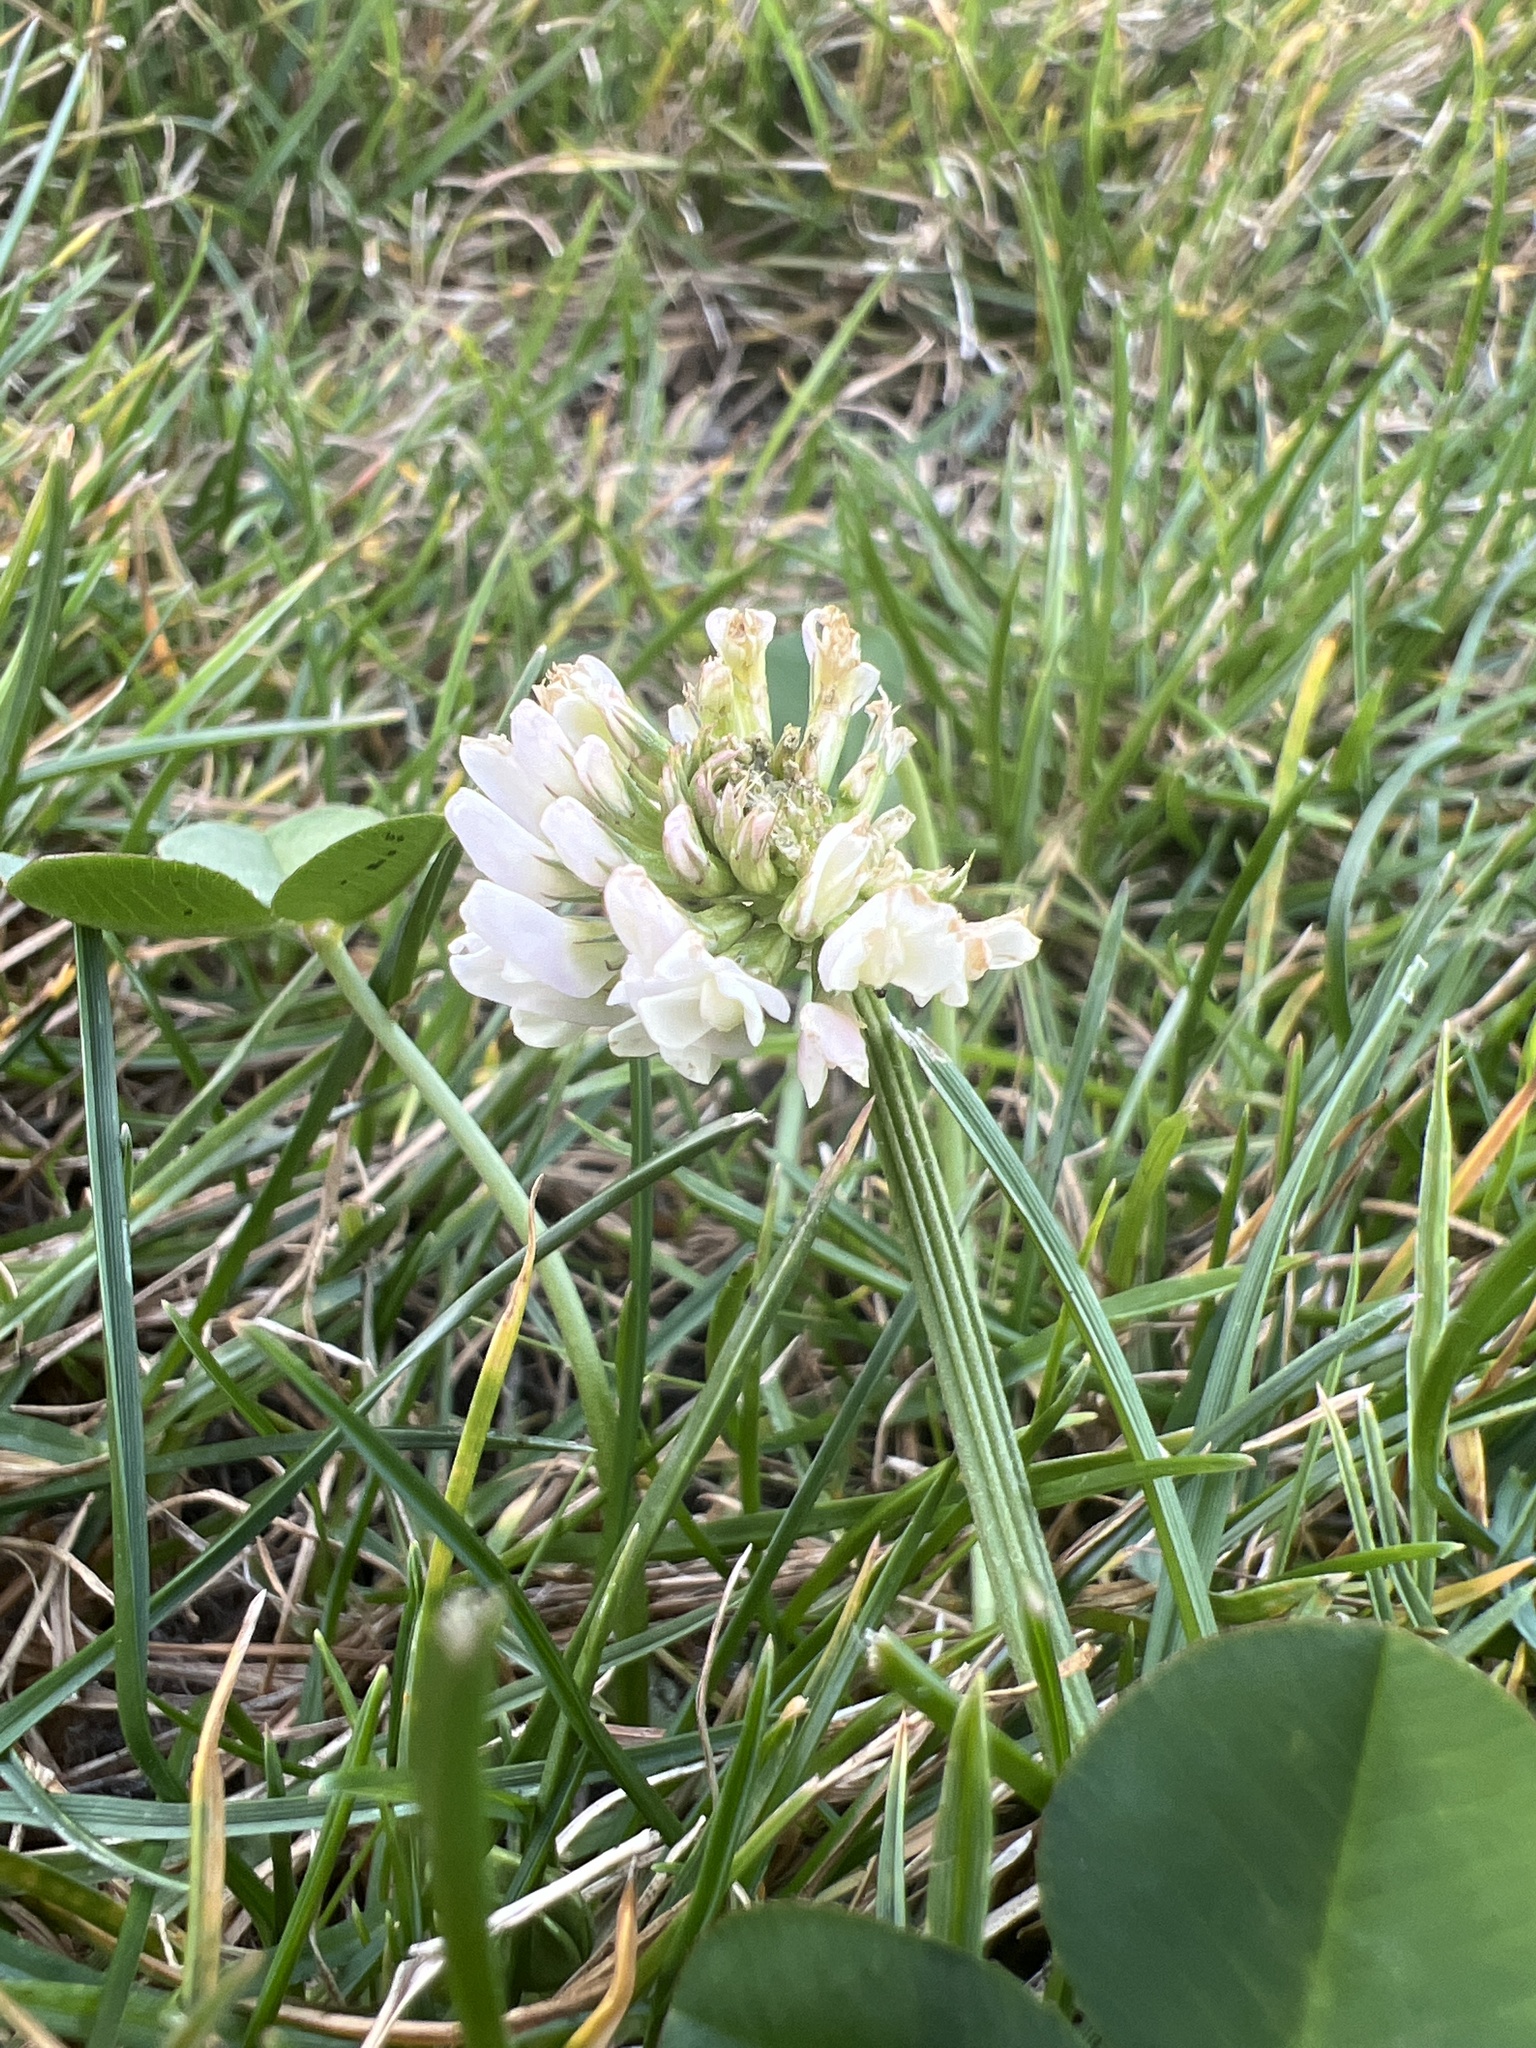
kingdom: Plantae
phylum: Tracheophyta
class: Magnoliopsida
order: Fabales
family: Fabaceae
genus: Trifolium
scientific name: Trifolium repens
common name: White clover
